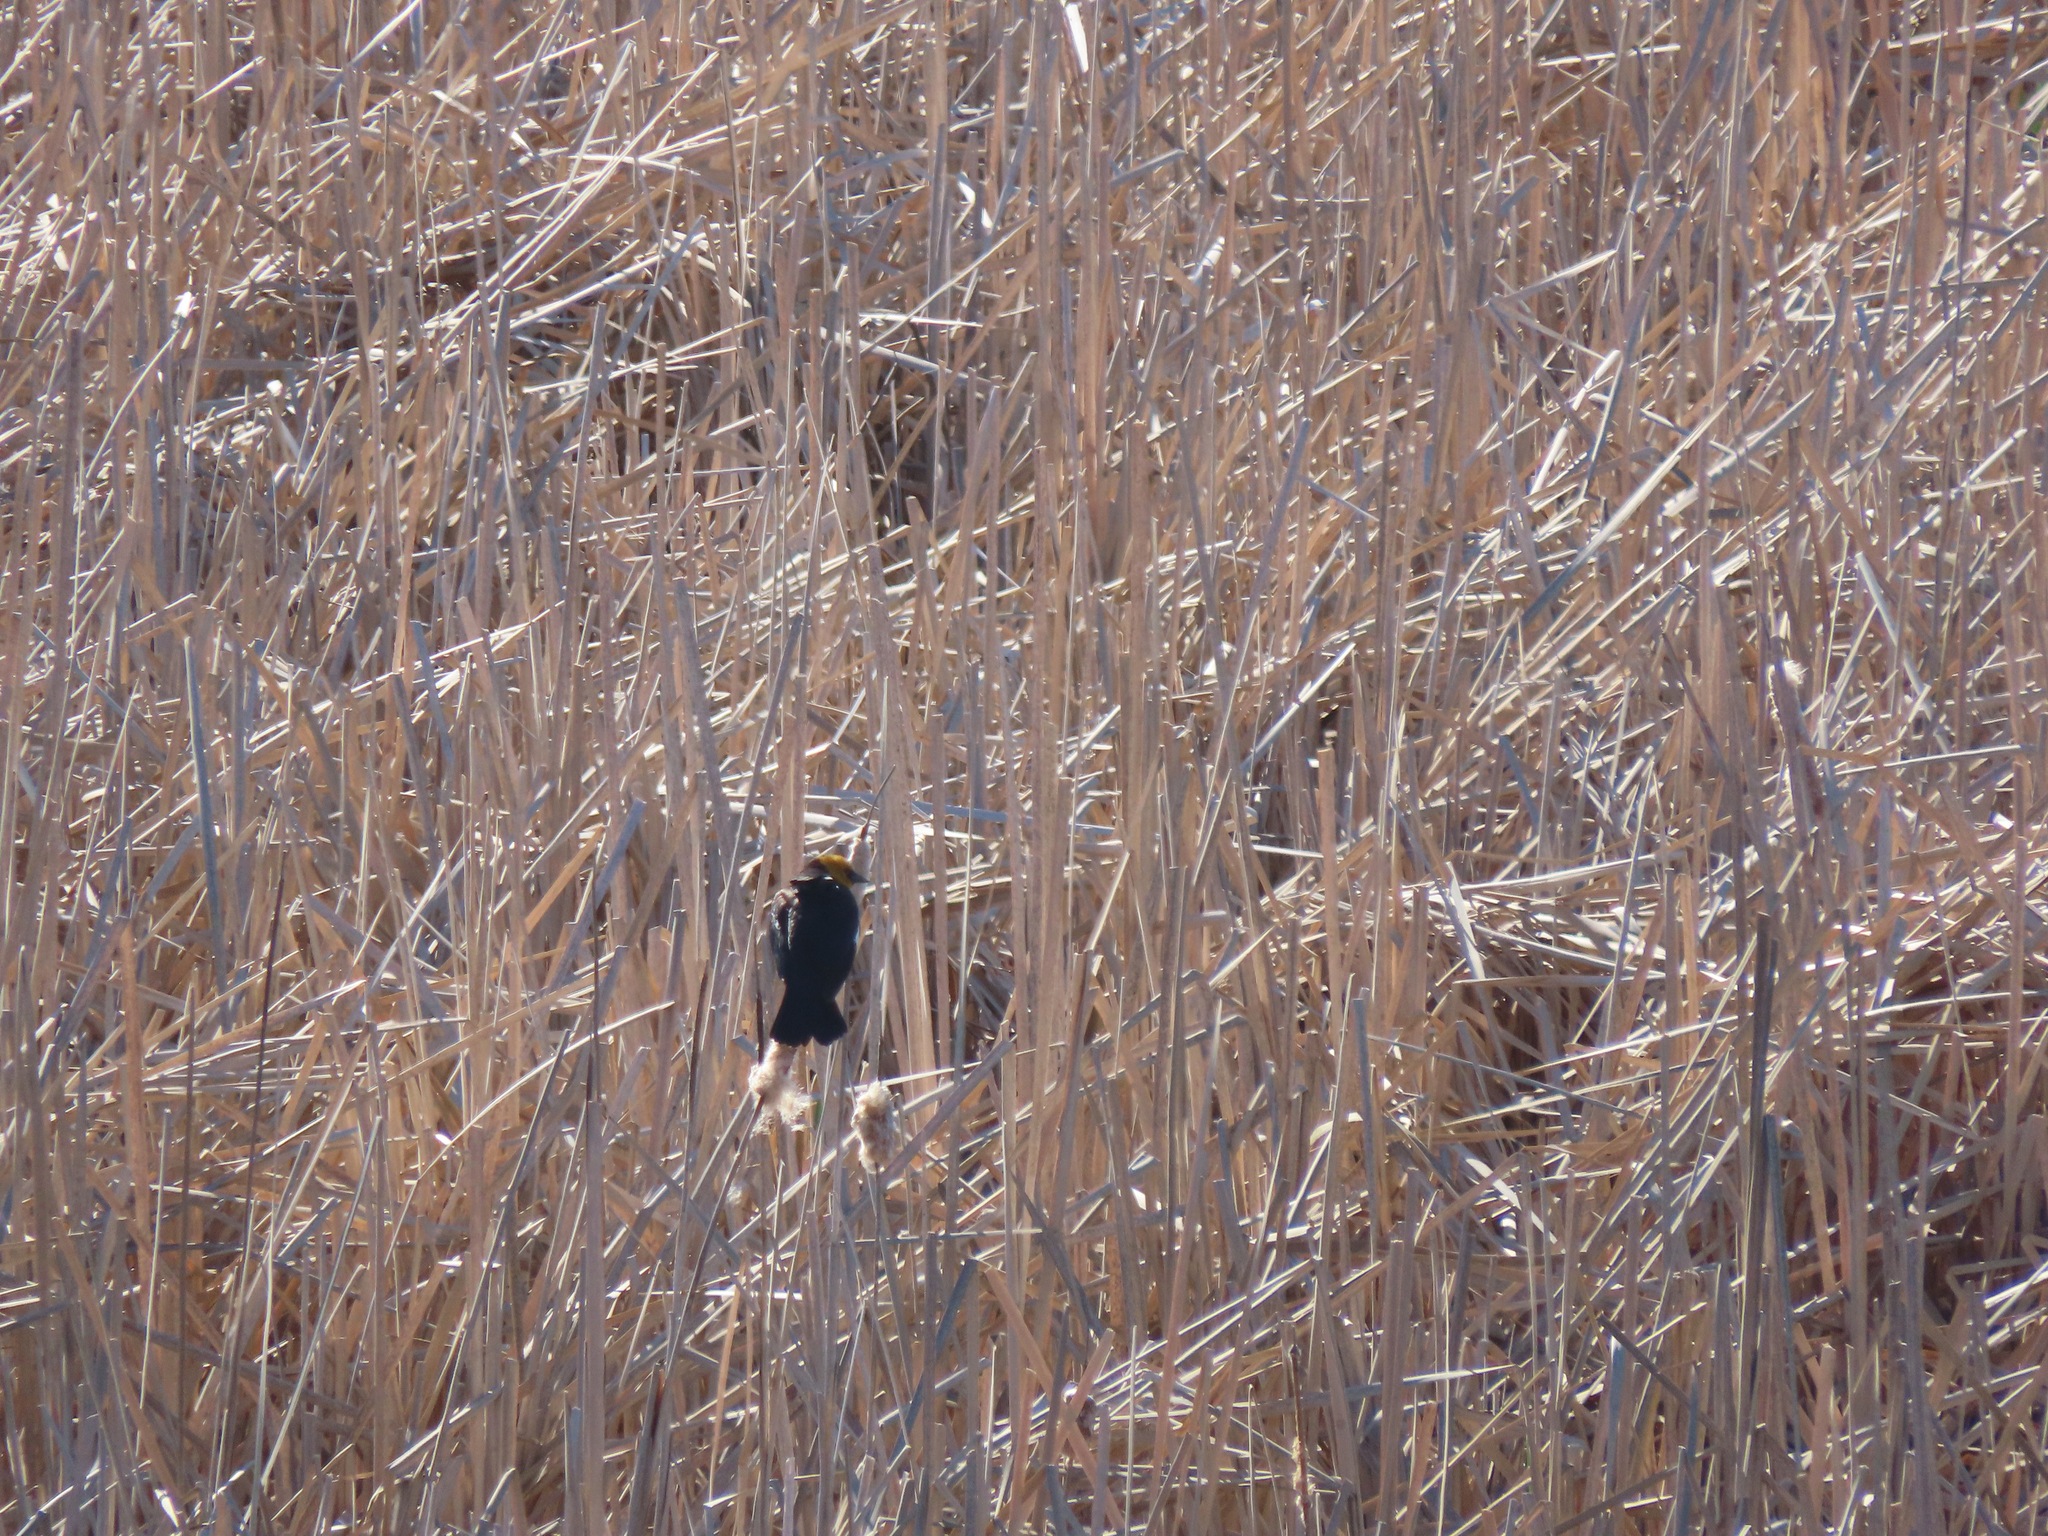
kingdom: Animalia
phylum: Chordata
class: Aves
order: Passeriformes
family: Icteridae
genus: Xanthocephalus
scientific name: Xanthocephalus xanthocephalus
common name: Yellow-headed blackbird
